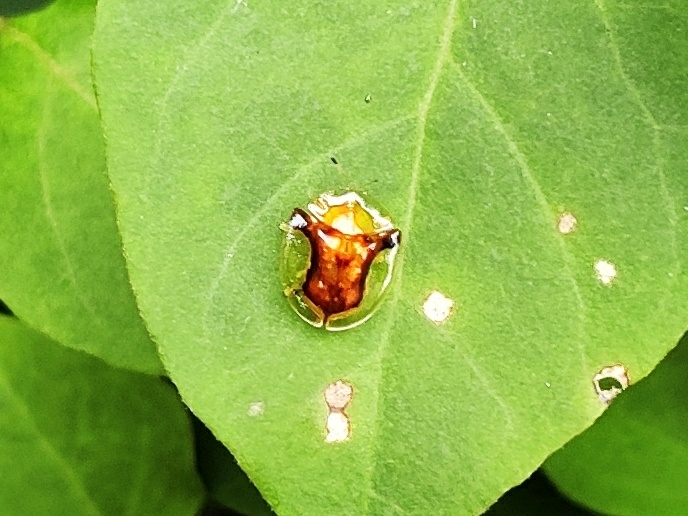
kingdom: Animalia
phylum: Arthropoda
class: Insecta
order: Coleoptera
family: Chrysomelidae
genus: Aspidimorpha
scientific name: Aspidimorpha furcata
